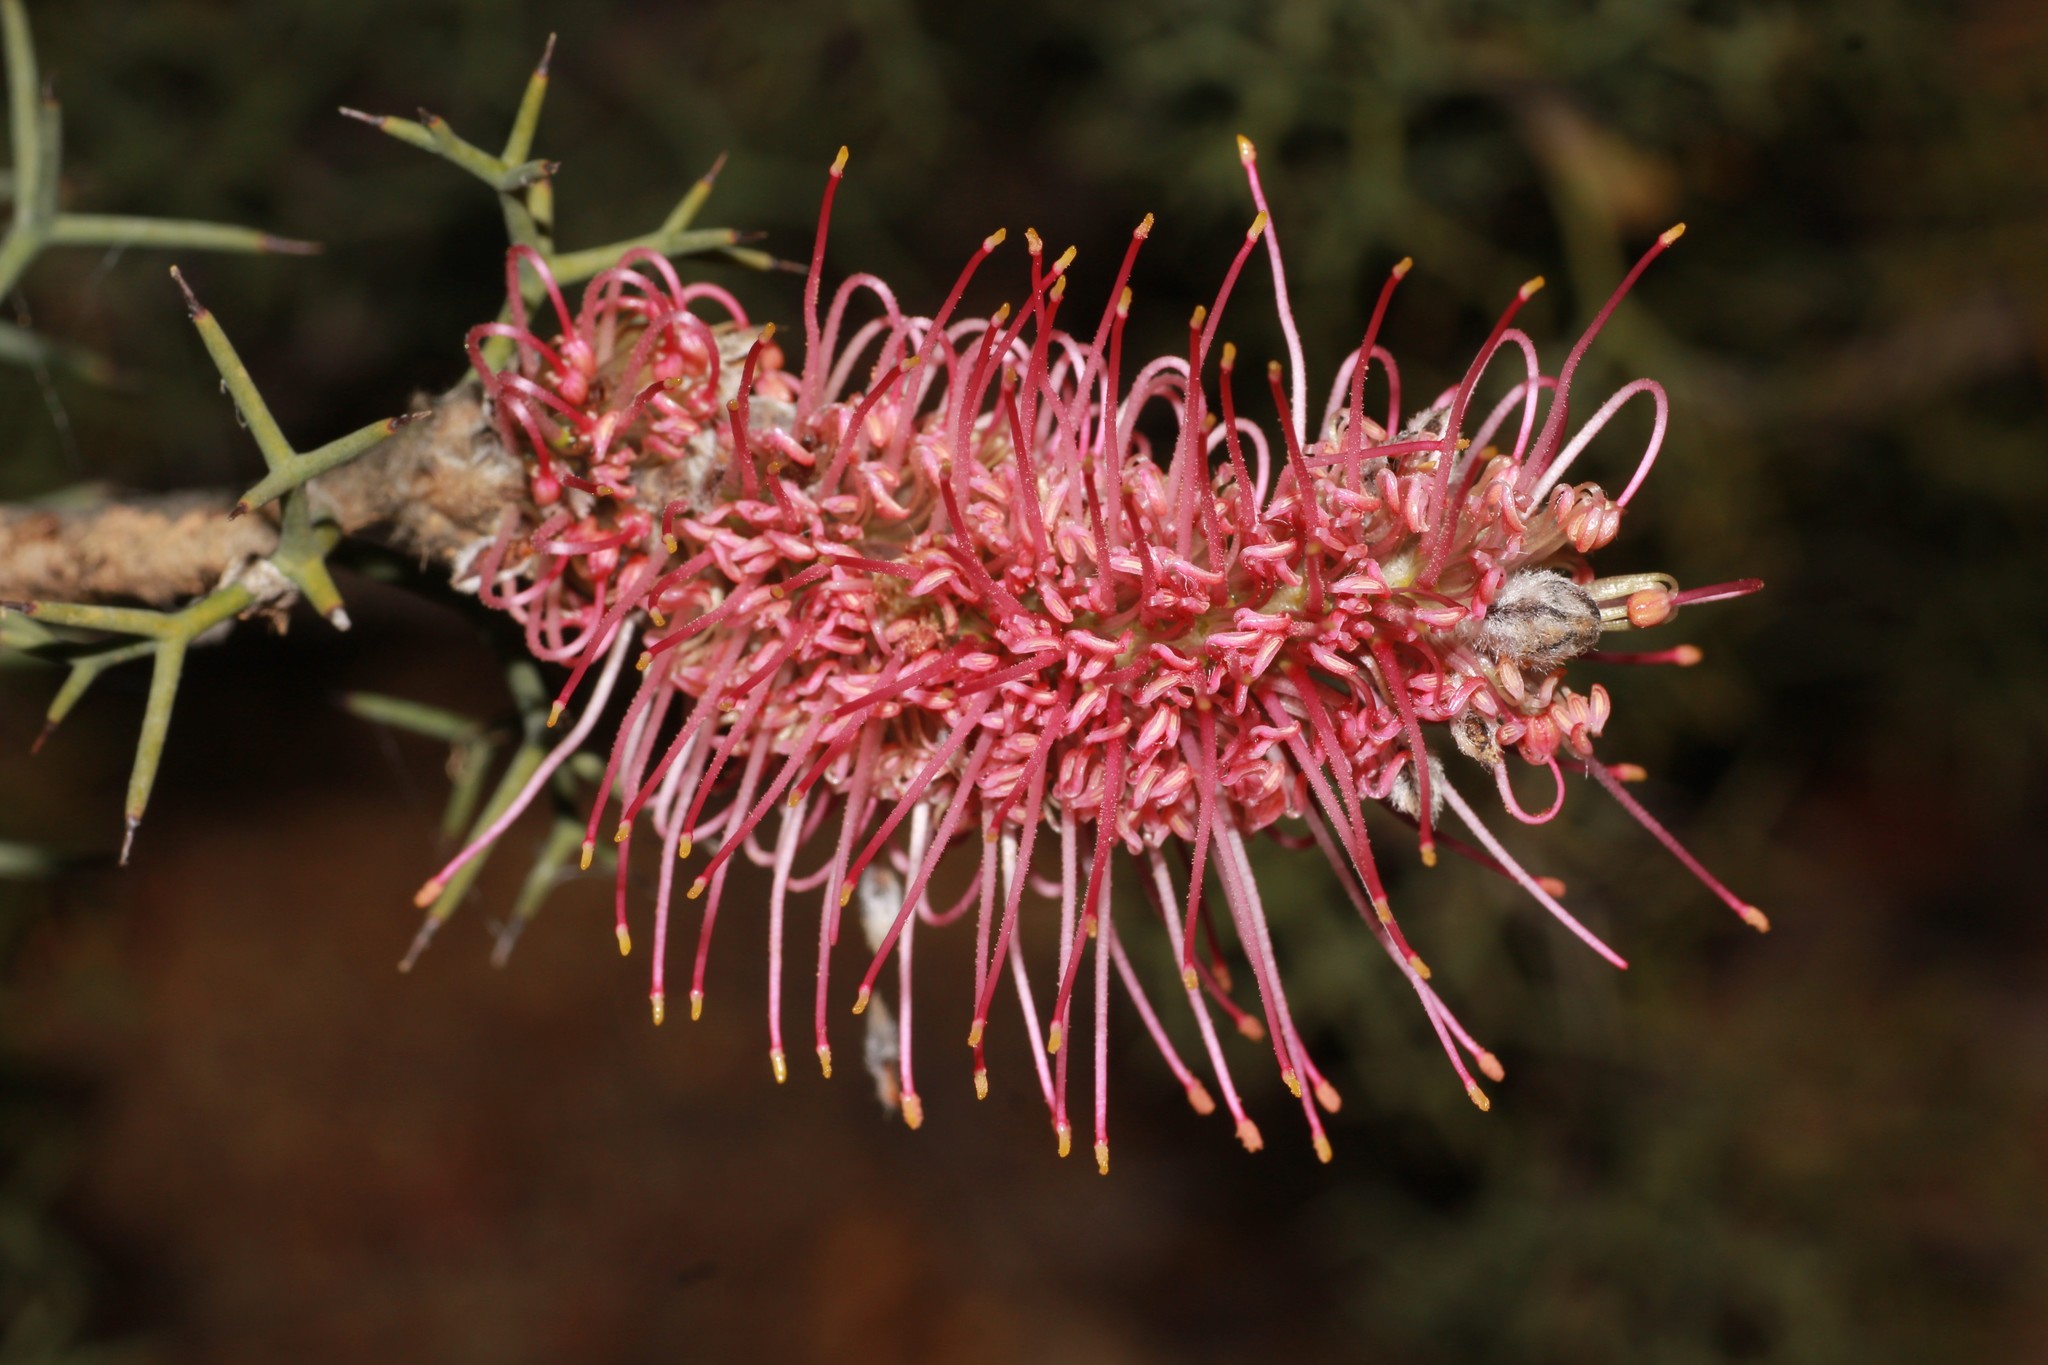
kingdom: Plantae
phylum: Tracheophyta
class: Magnoliopsida
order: Proteales
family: Proteaceae
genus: Grevillea
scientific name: Grevillea paradoxa
